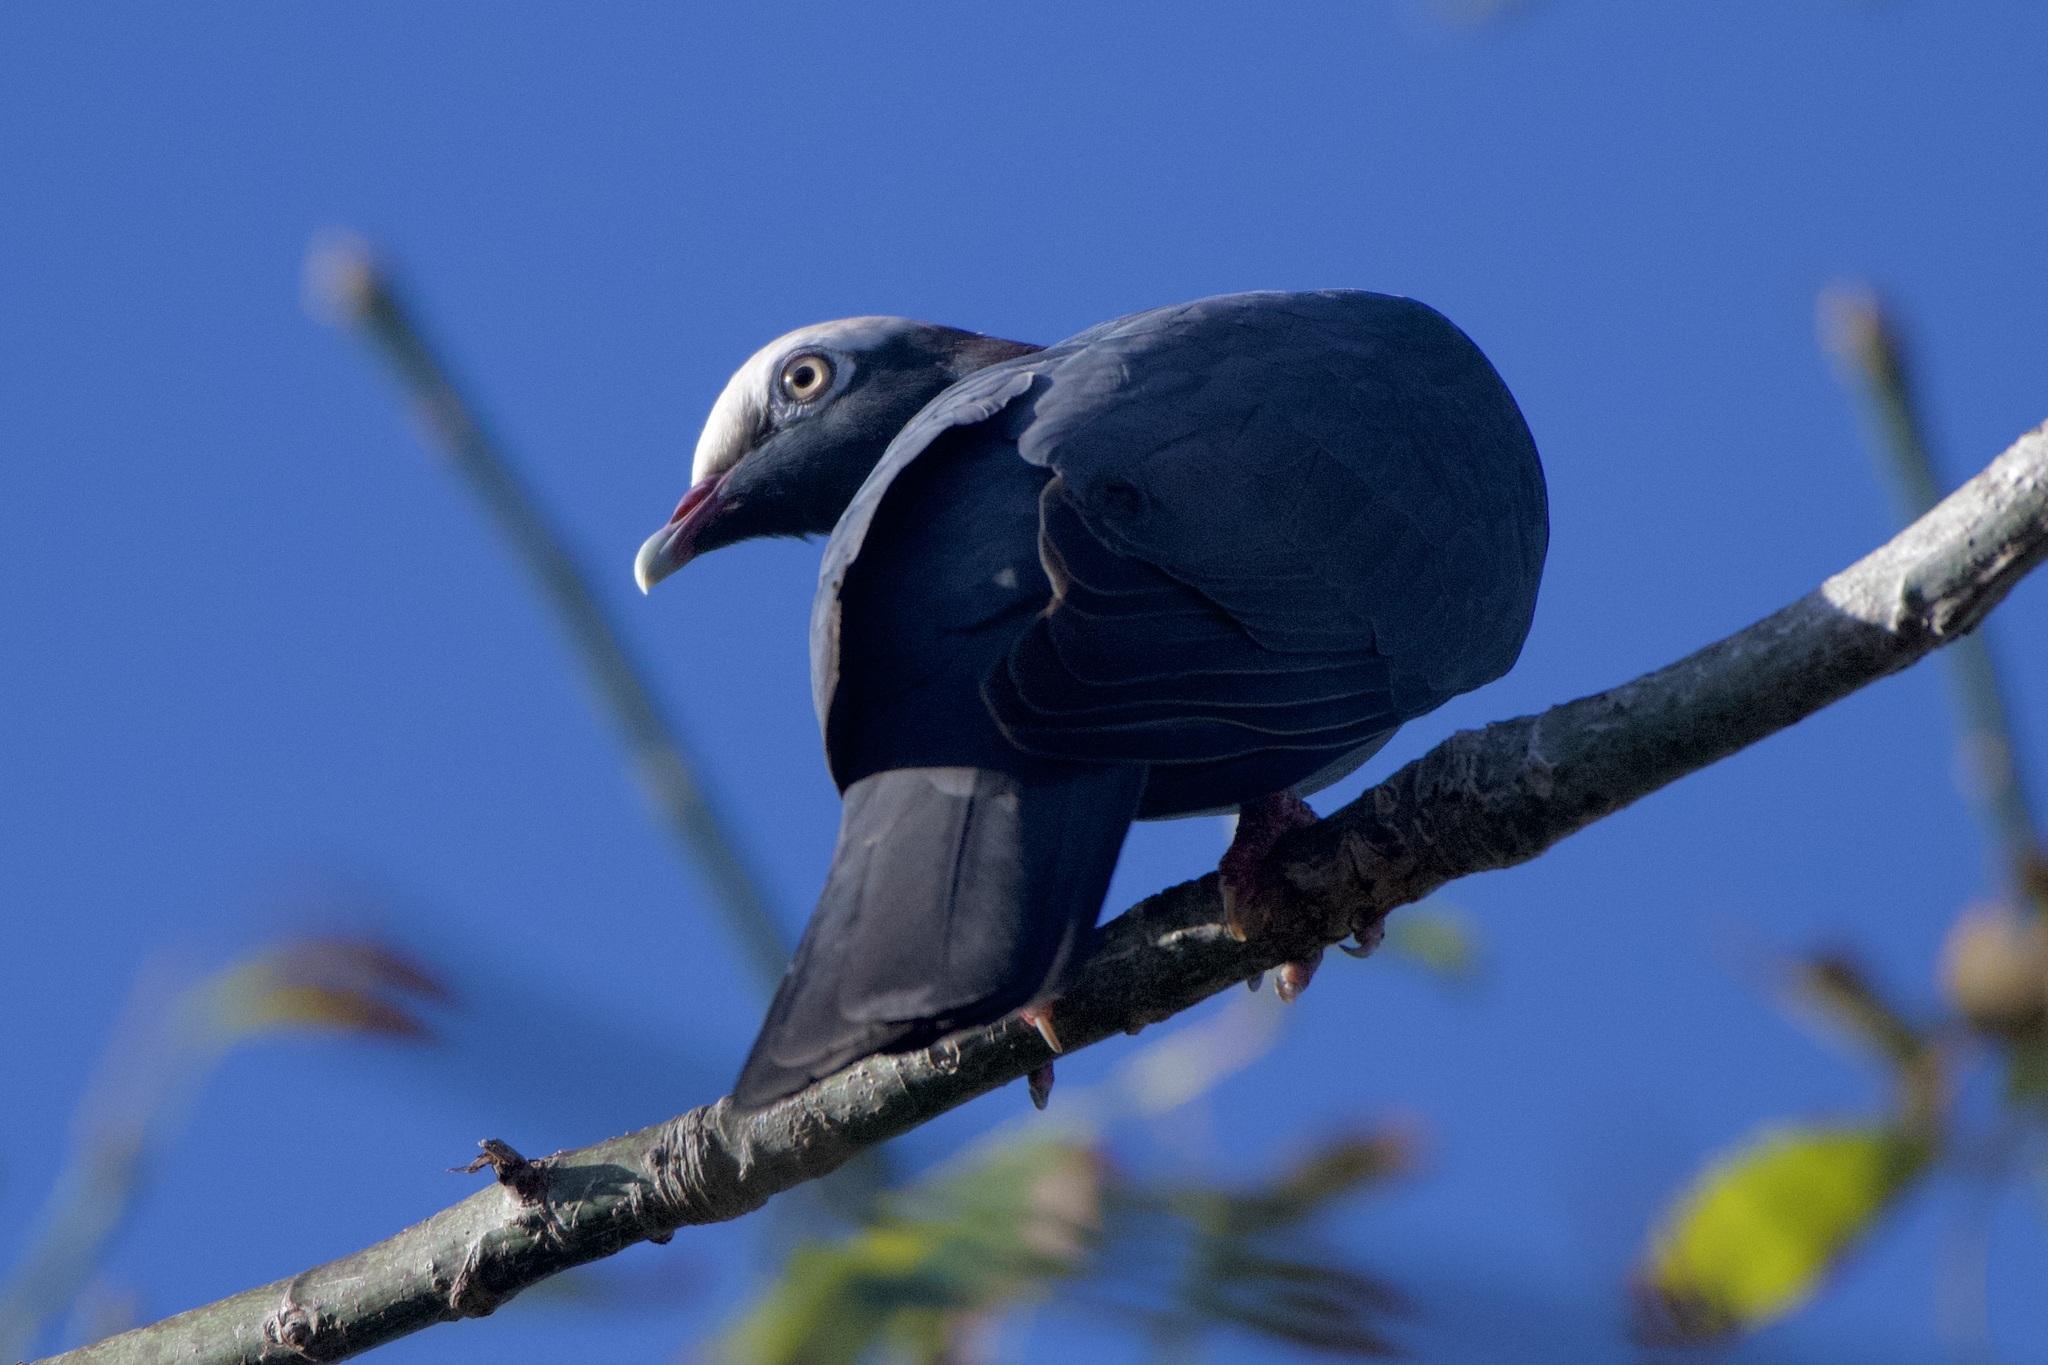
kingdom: Animalia
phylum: Chordata
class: Aves
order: Columbiformes
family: Columbidae
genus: Patagioenas
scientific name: Patagioenas leucocephala
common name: White-crowned pigeon
